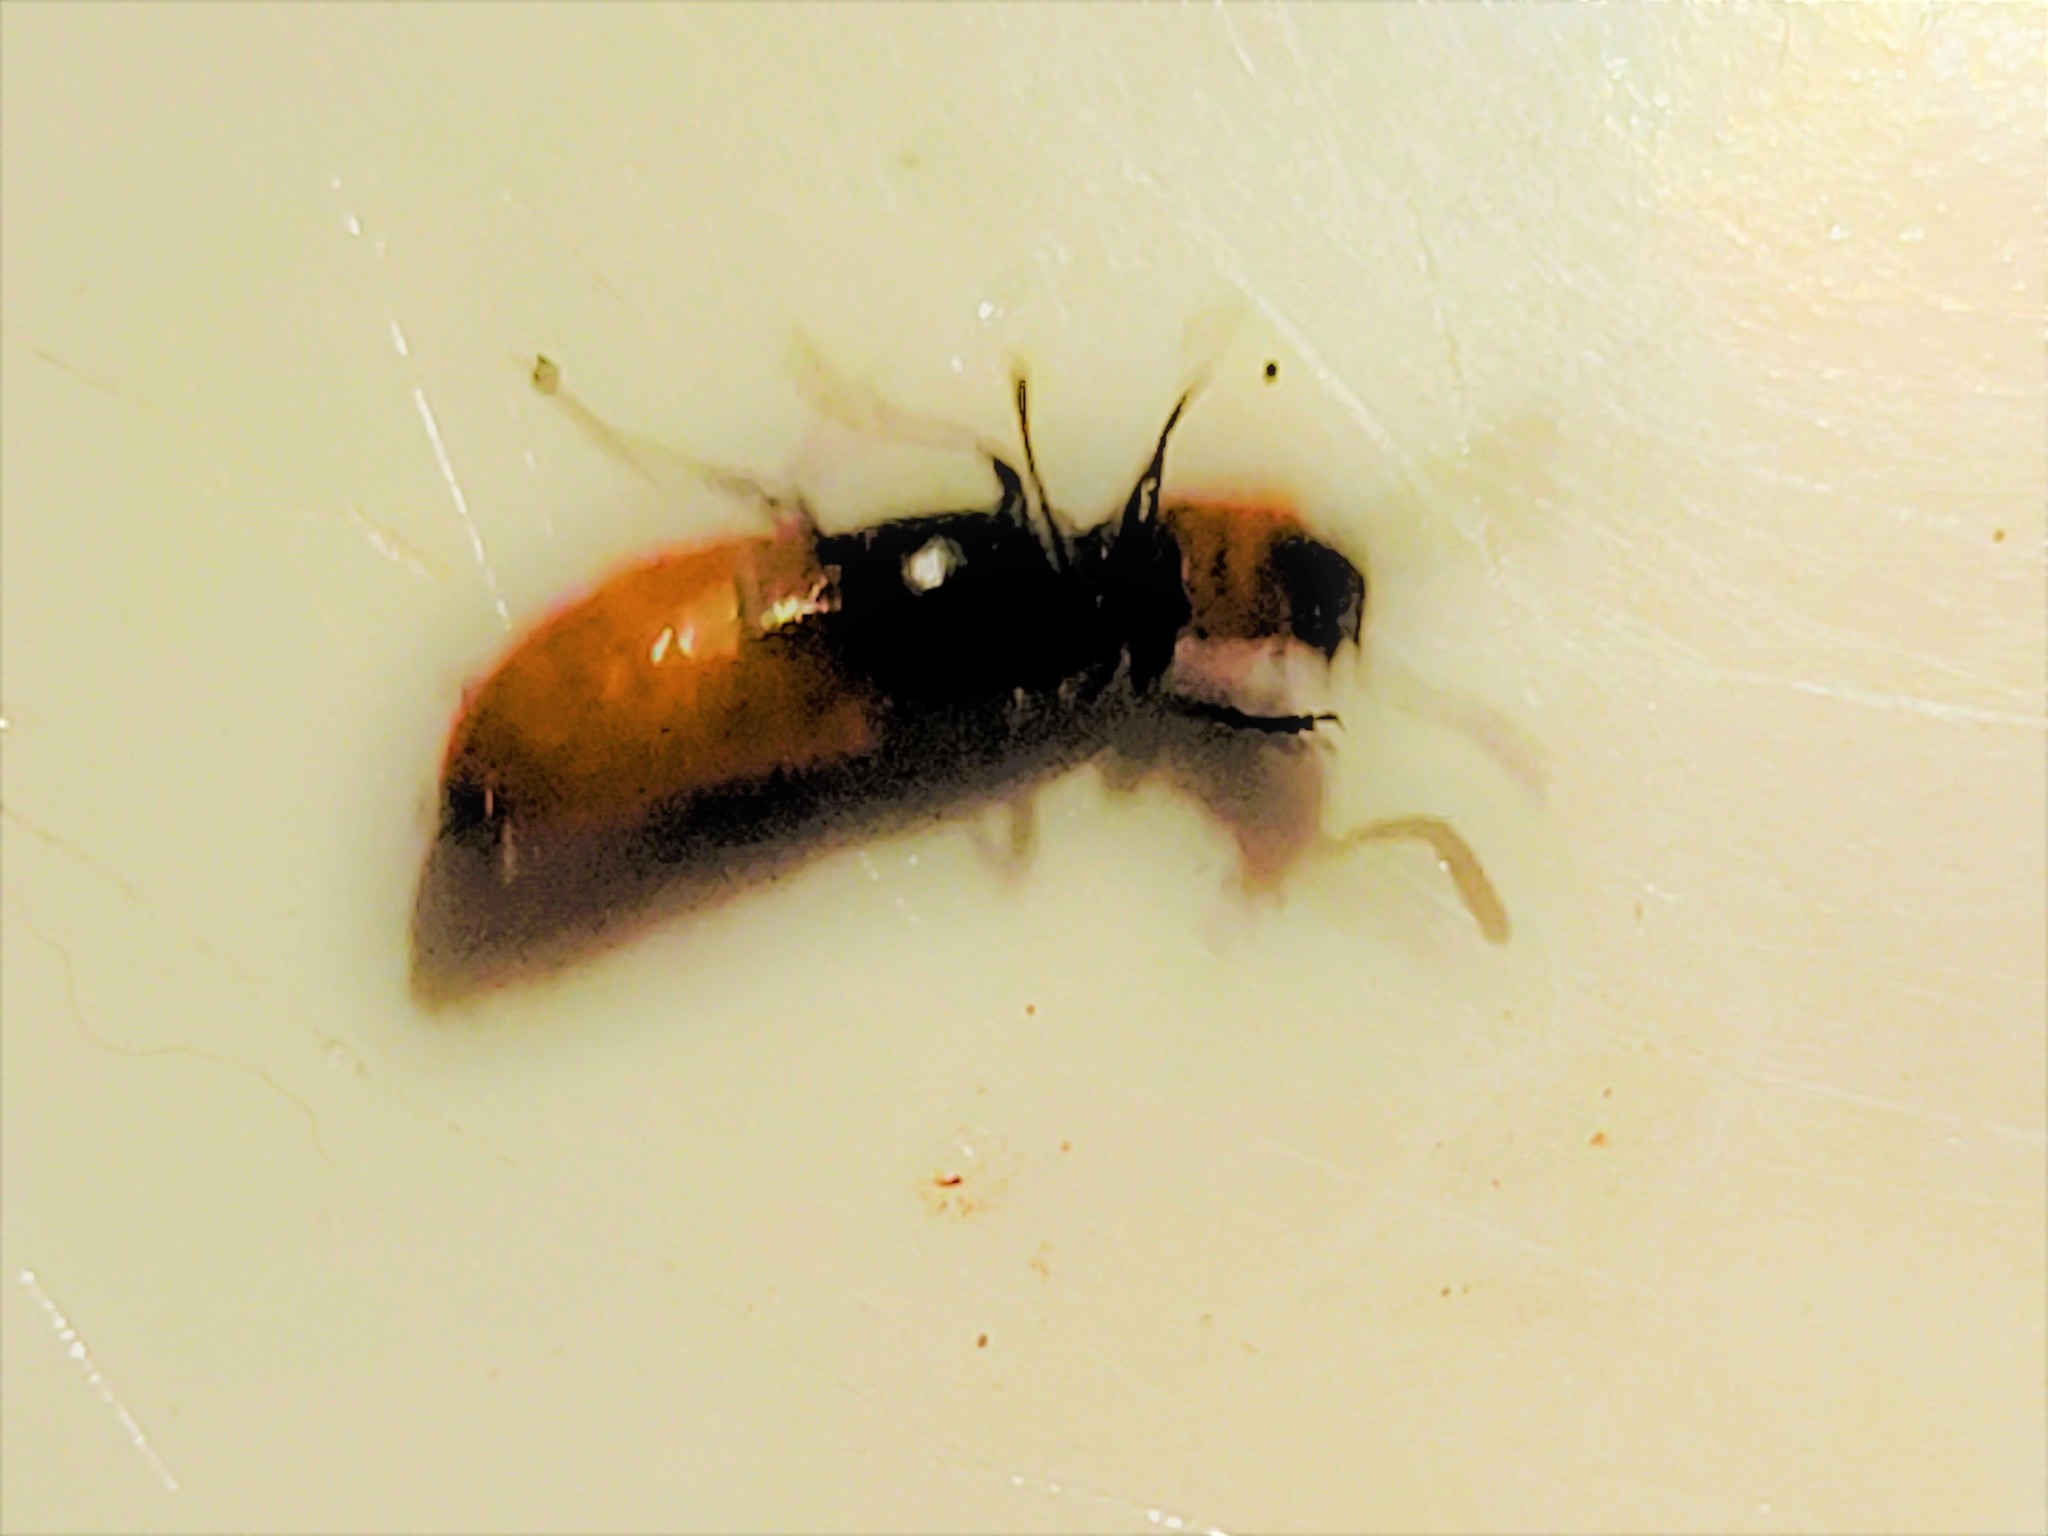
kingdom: Animalia
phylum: Arthropoda
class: Insecta
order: Coleoptera
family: Cleridae
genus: Monophylla
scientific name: Monophylla terminata
